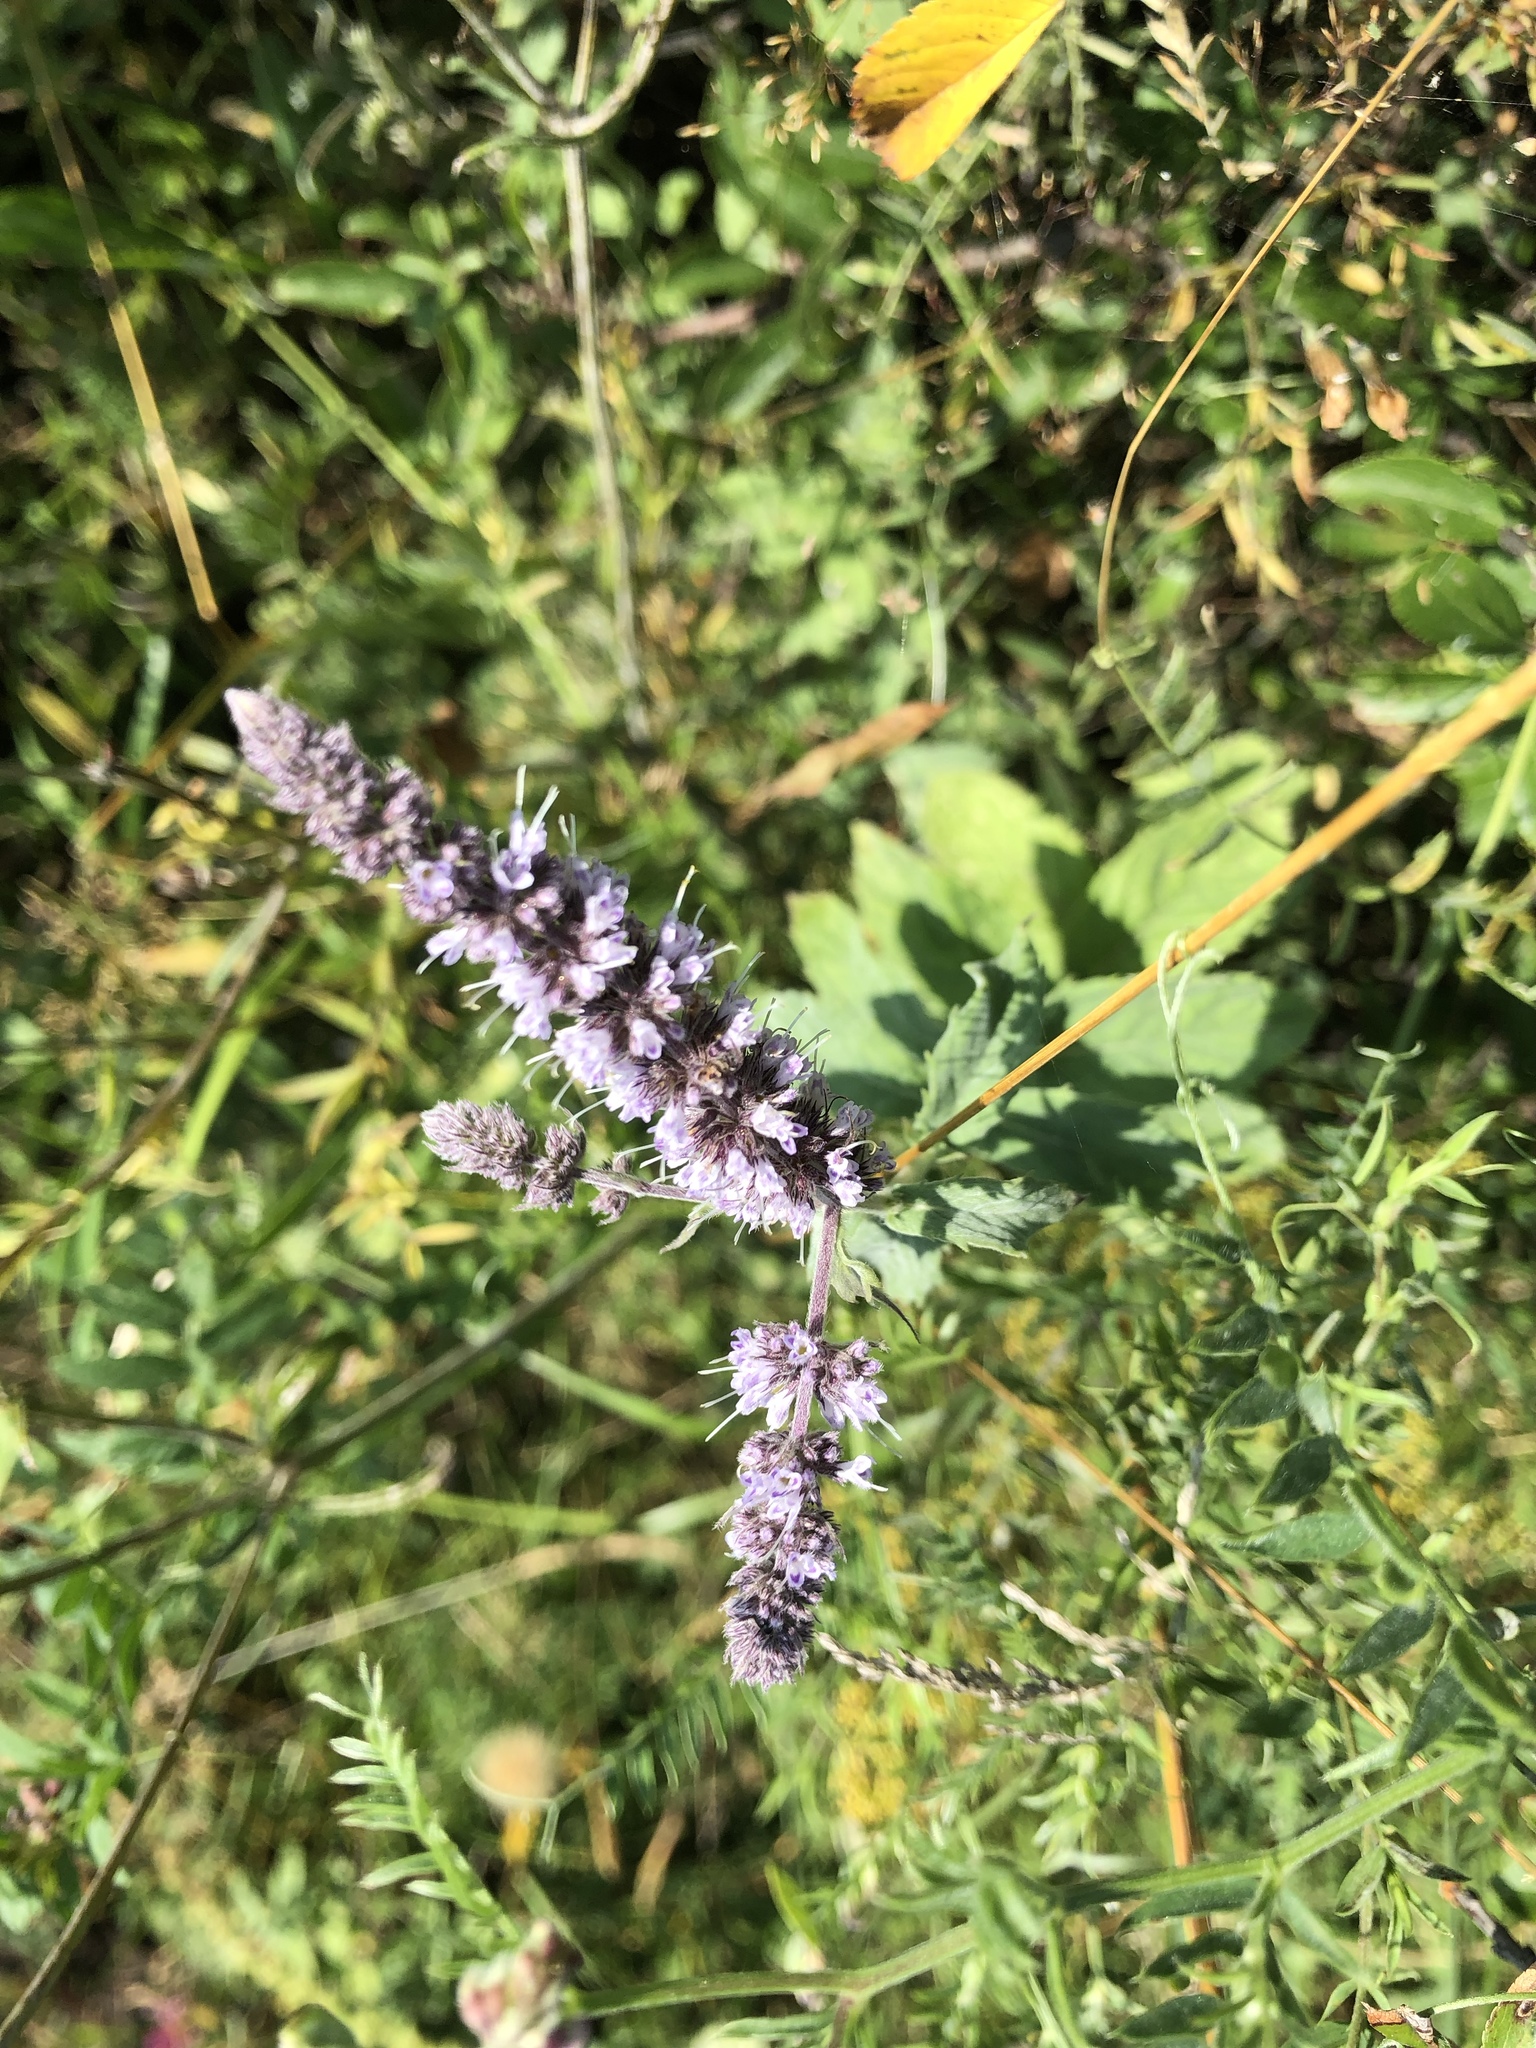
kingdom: Plantae
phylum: Tracheophyta
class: Magnoliopsida
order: Lamiales
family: Lamiaceae
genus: Mentha
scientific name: Mentha longifolia
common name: Horse mint
